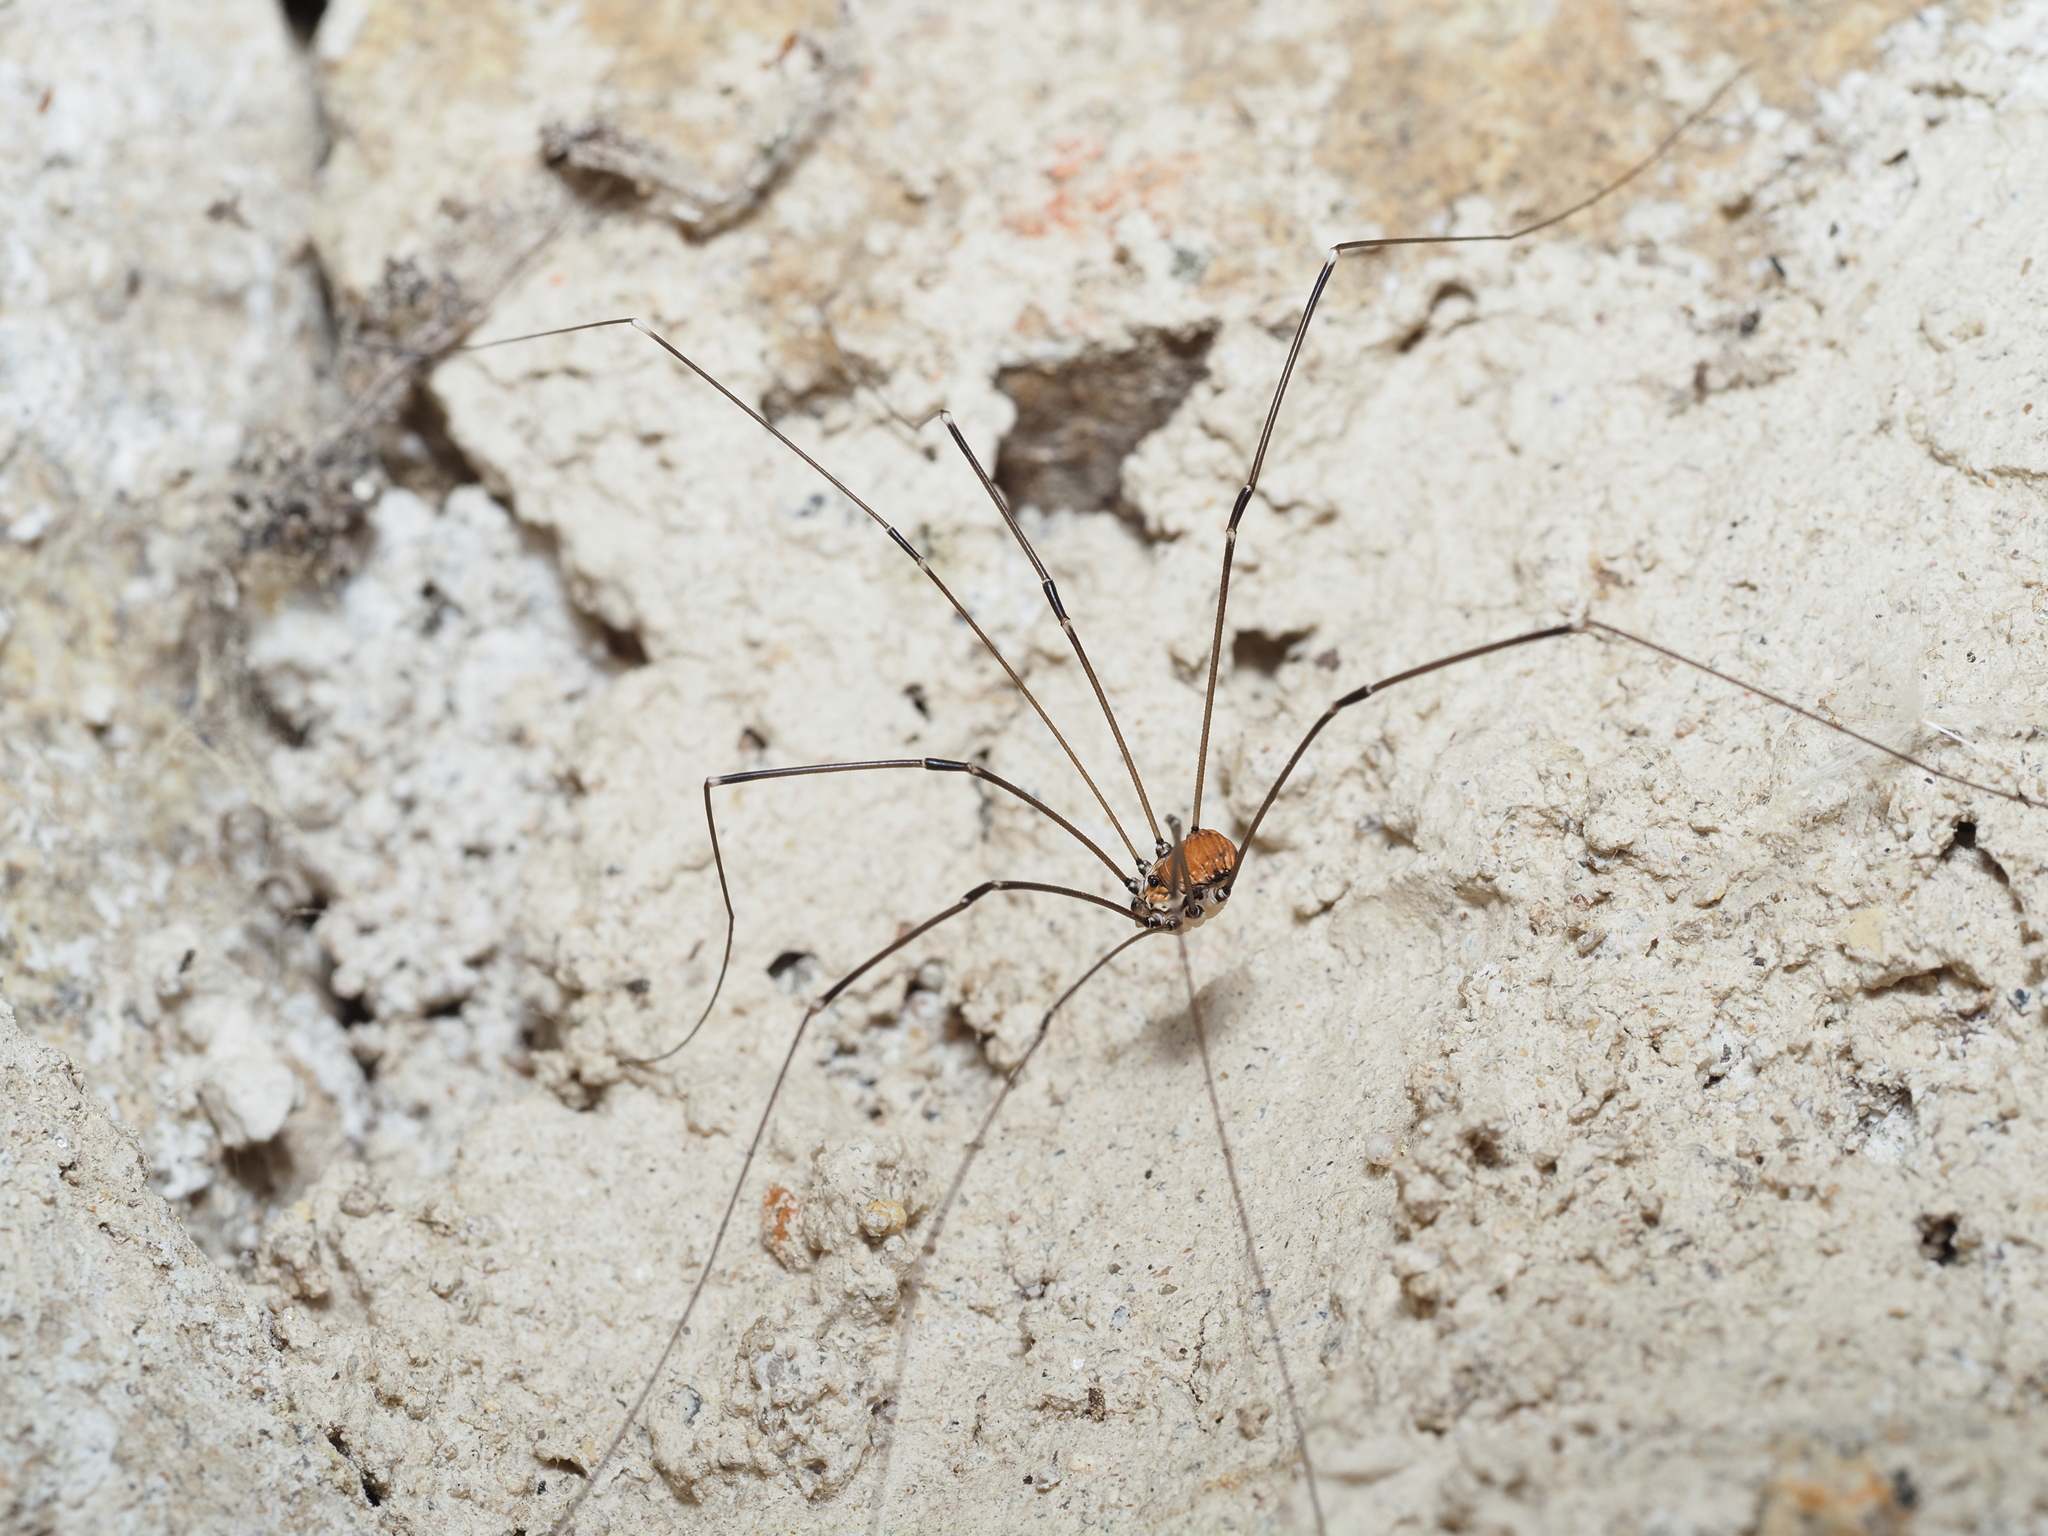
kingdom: Animalia
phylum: Arthropoda
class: Arachnida
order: Opiliones
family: Sclerosomatidae
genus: Leiobunum
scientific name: Leiobunum limbatum
